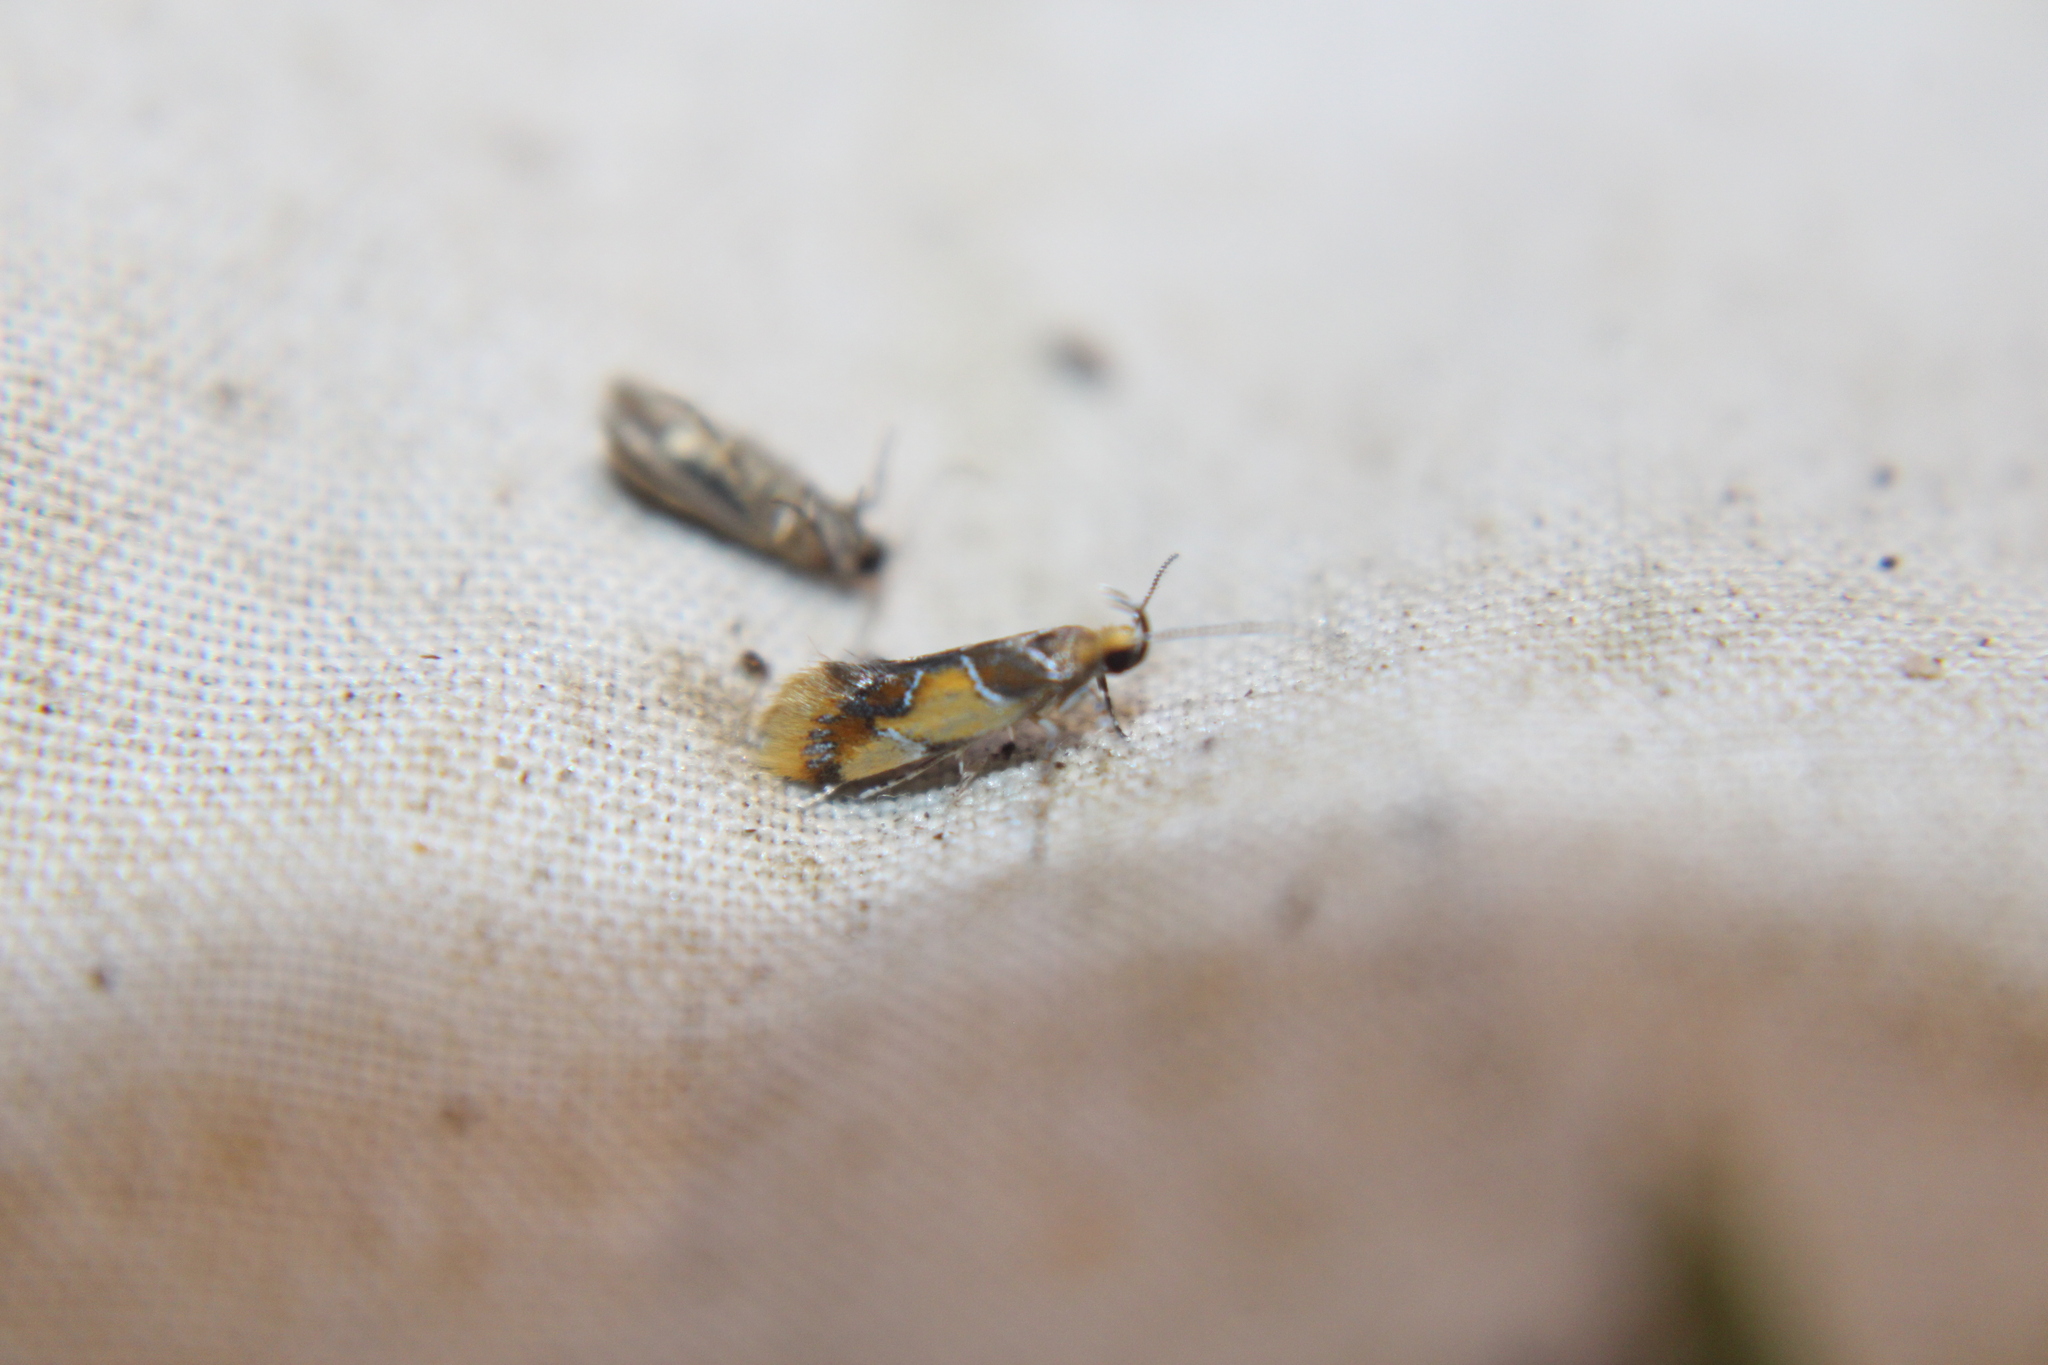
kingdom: Animalia
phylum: Arthropoda
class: Insecta
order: Lepidoptera
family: Oecophoridae
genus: Callima
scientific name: Callima argenticinctella
